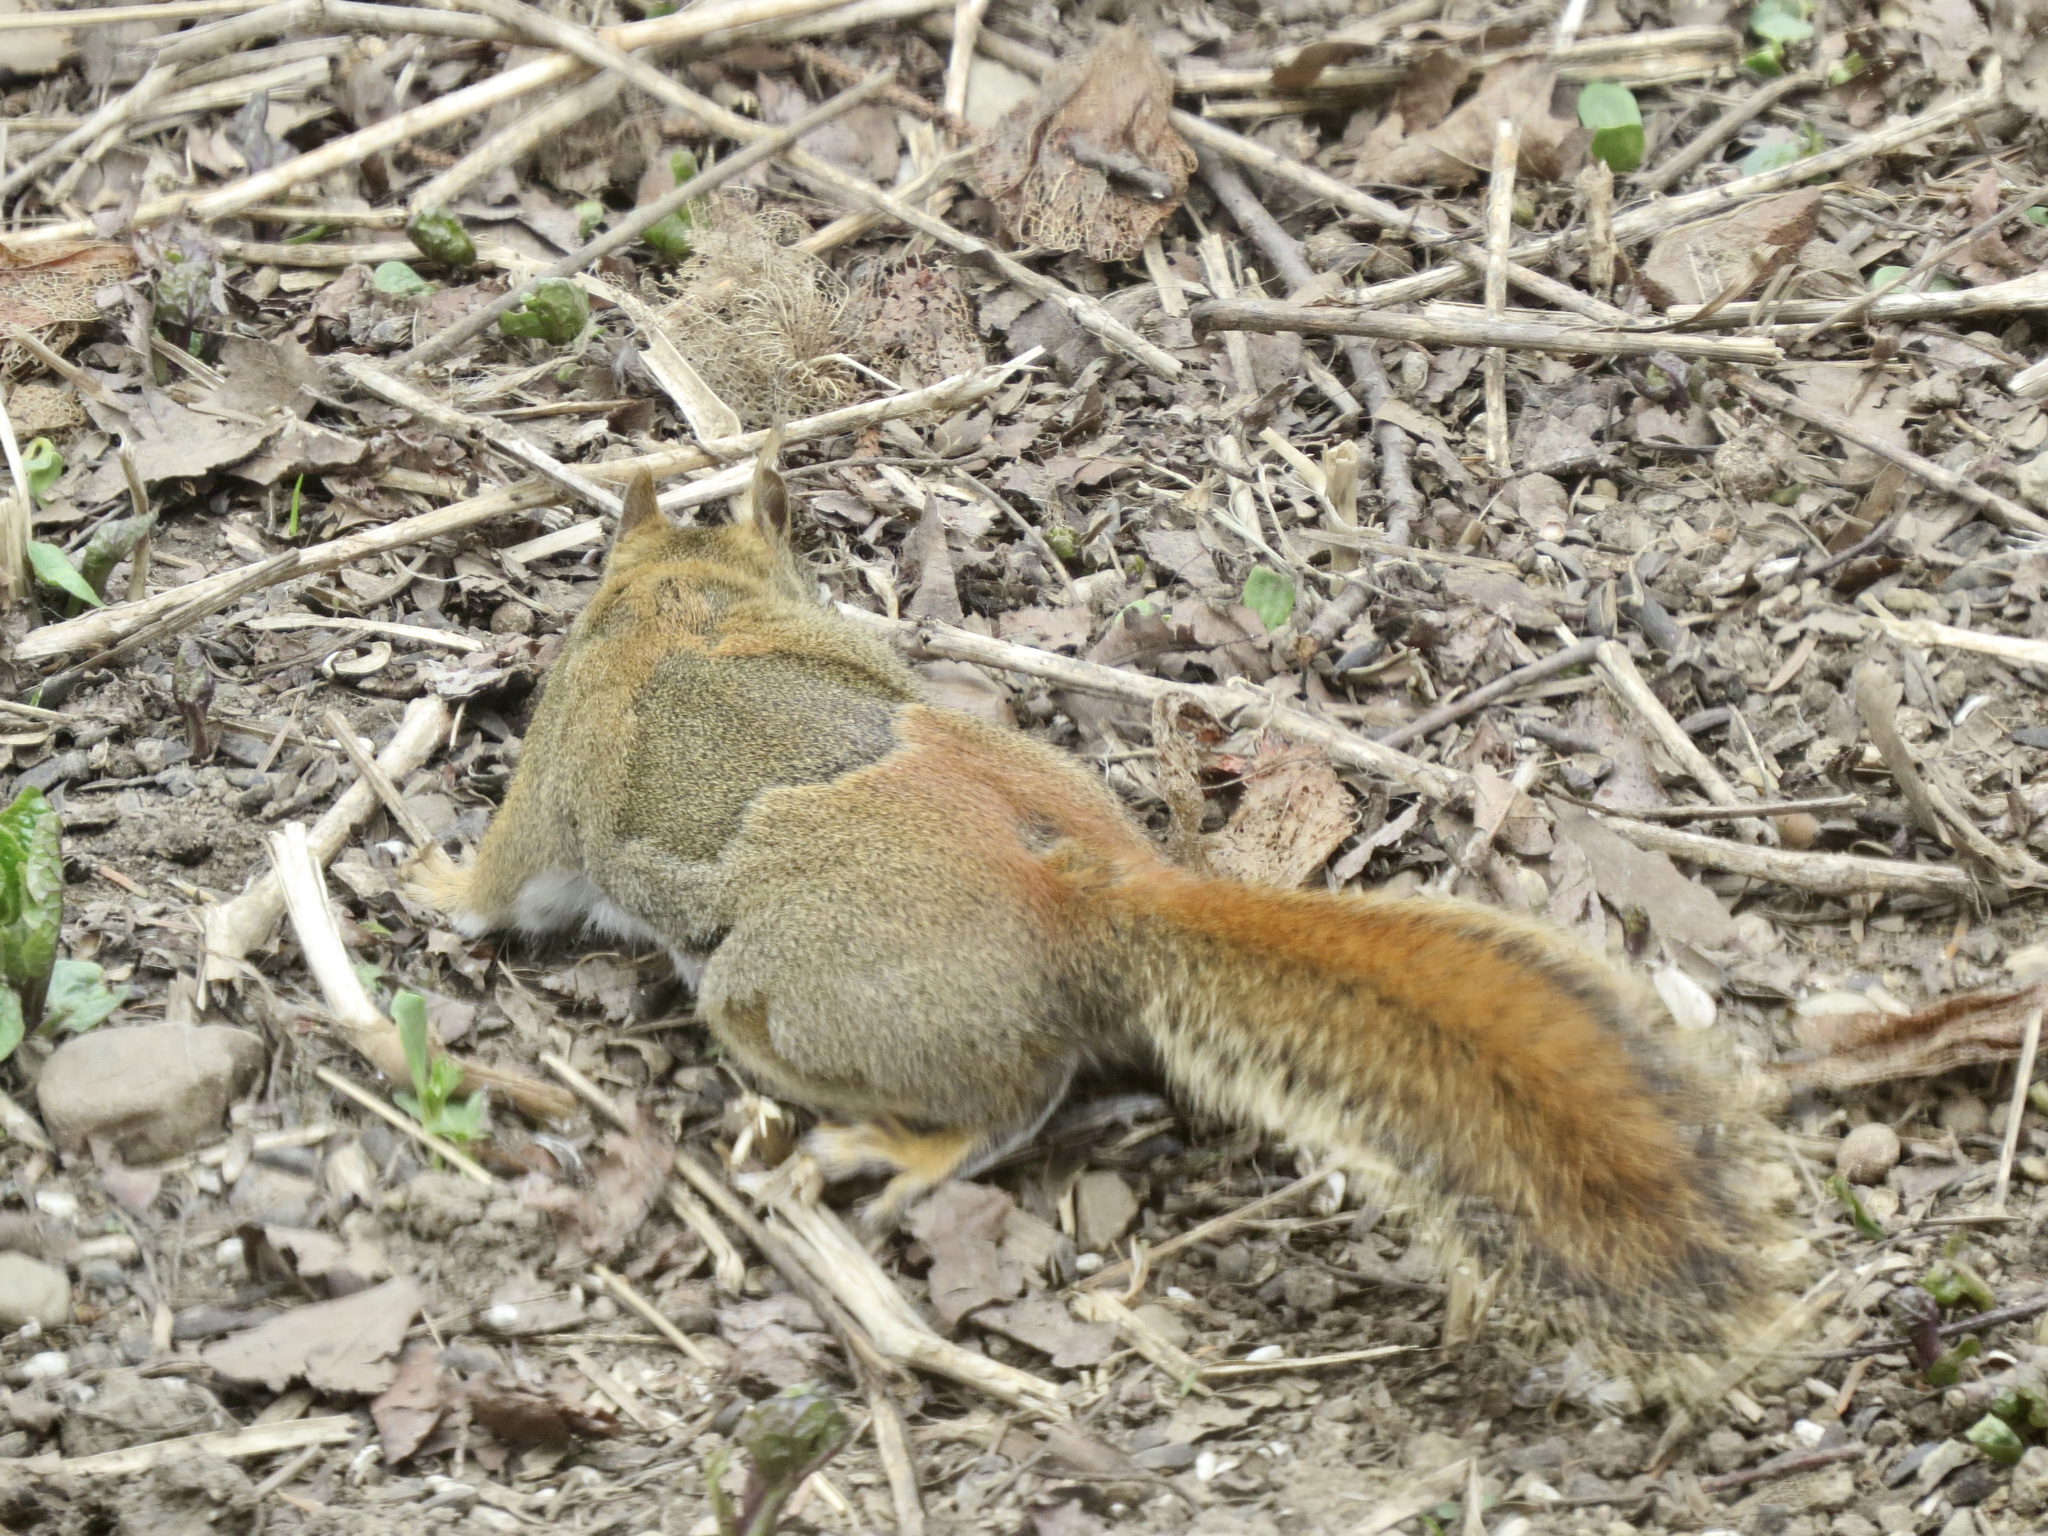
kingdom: Animalia
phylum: Chordata
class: Mammalia
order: Rodentia
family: Sciuridae
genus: Tamiasciurus
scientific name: Tamiasciurus hudsonicus
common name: Red squirrel
